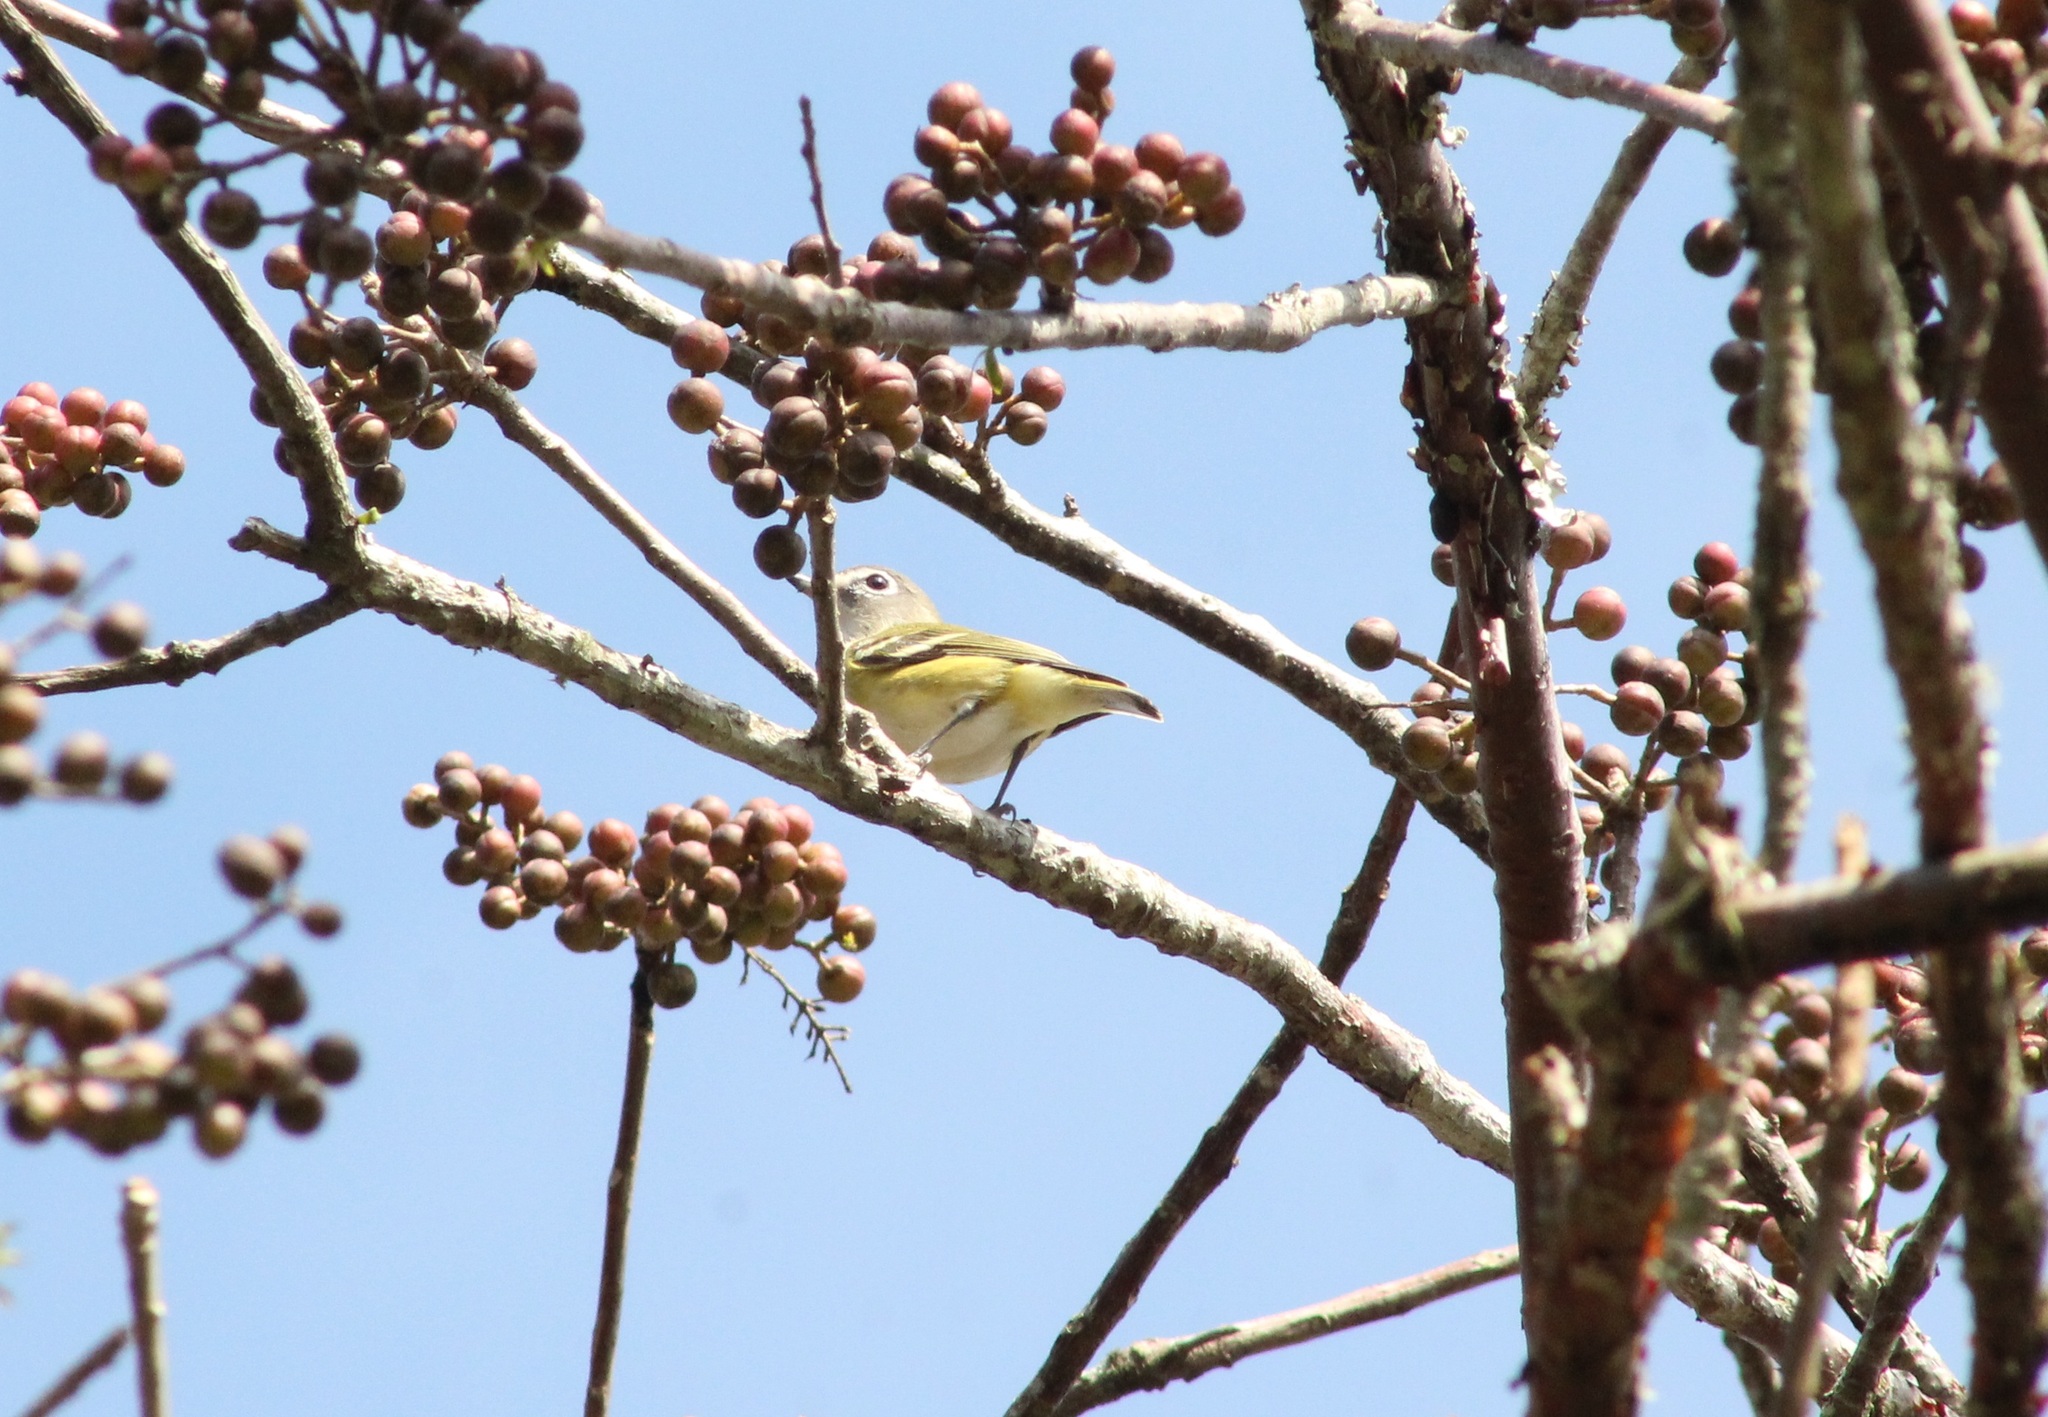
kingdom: Animalia
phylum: Chordata
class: Aves
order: Passeriformes
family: Vireonidae
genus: Vireo
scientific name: Vireo solitarius
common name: Blue-headed vireo
